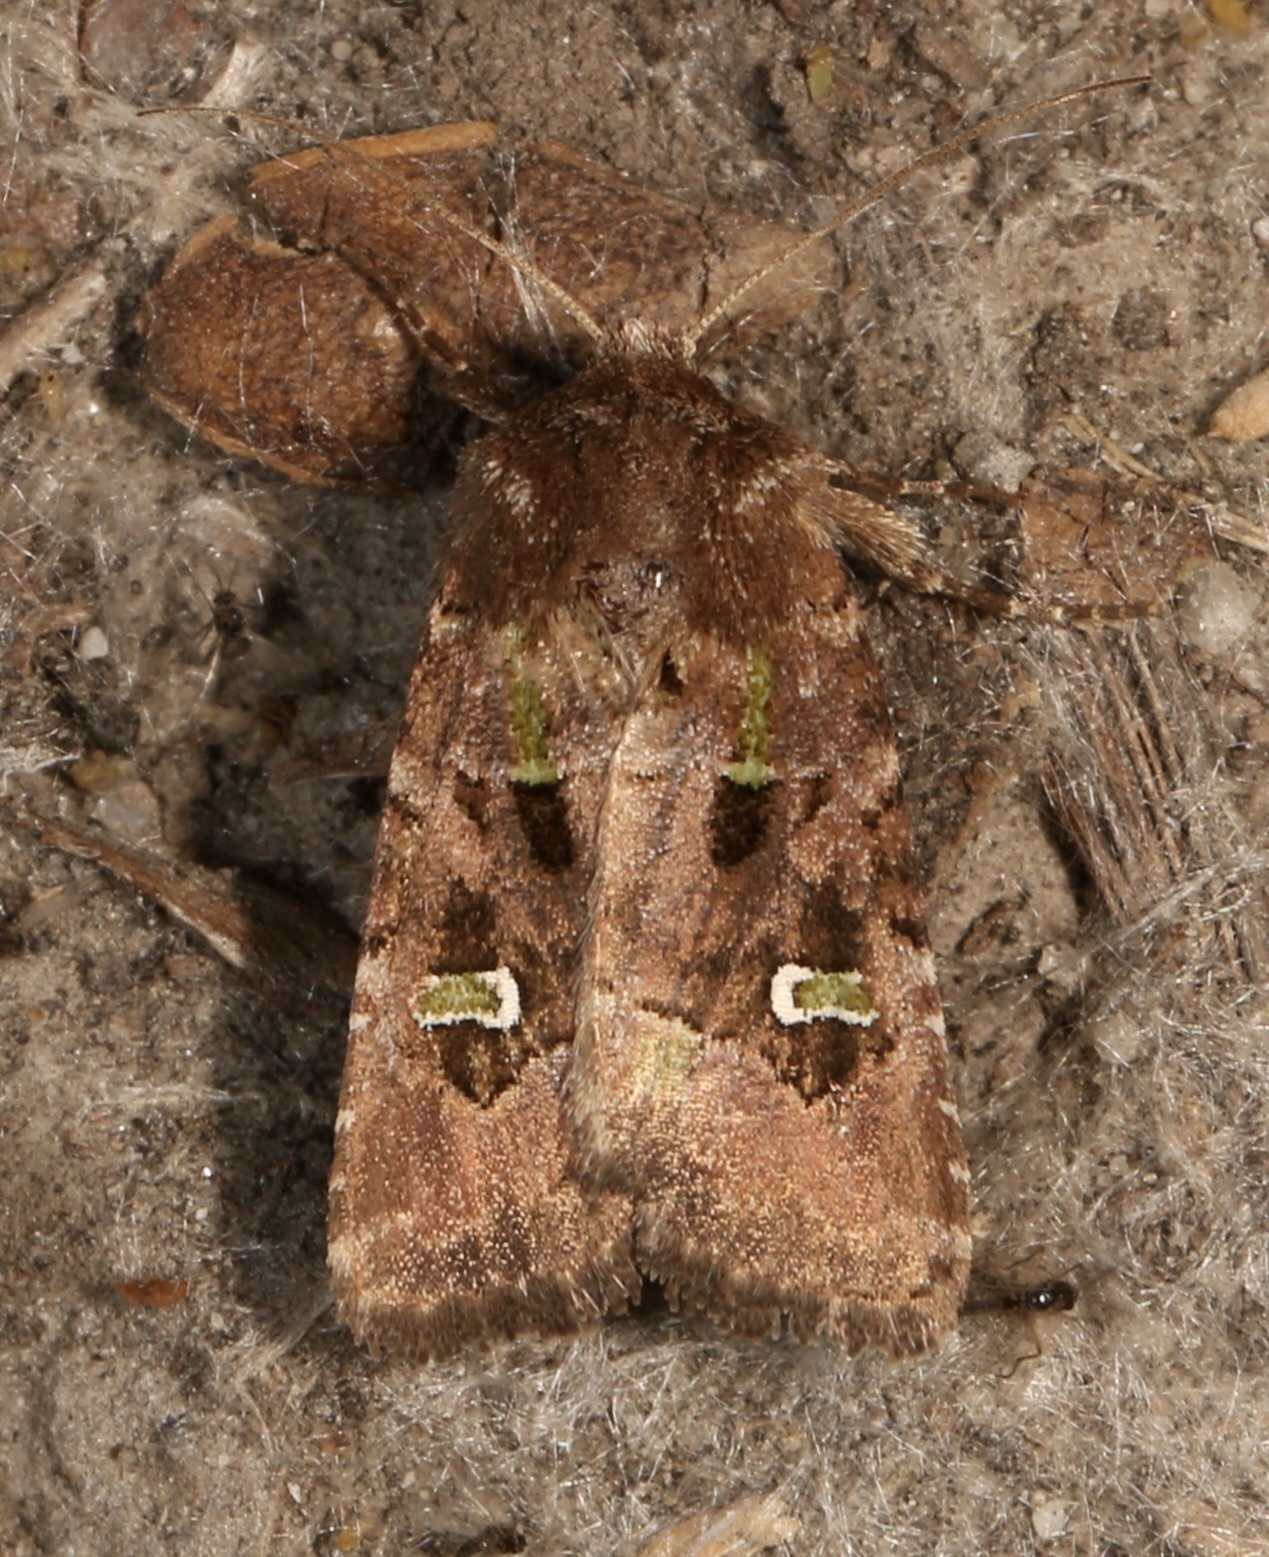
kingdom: Animalia
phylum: Arthropoda
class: Insecta
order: Lepidoptera
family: Noctuidae
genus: Lacinipolia
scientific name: Lacinipolia renigera
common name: Kidney-spotted minor
